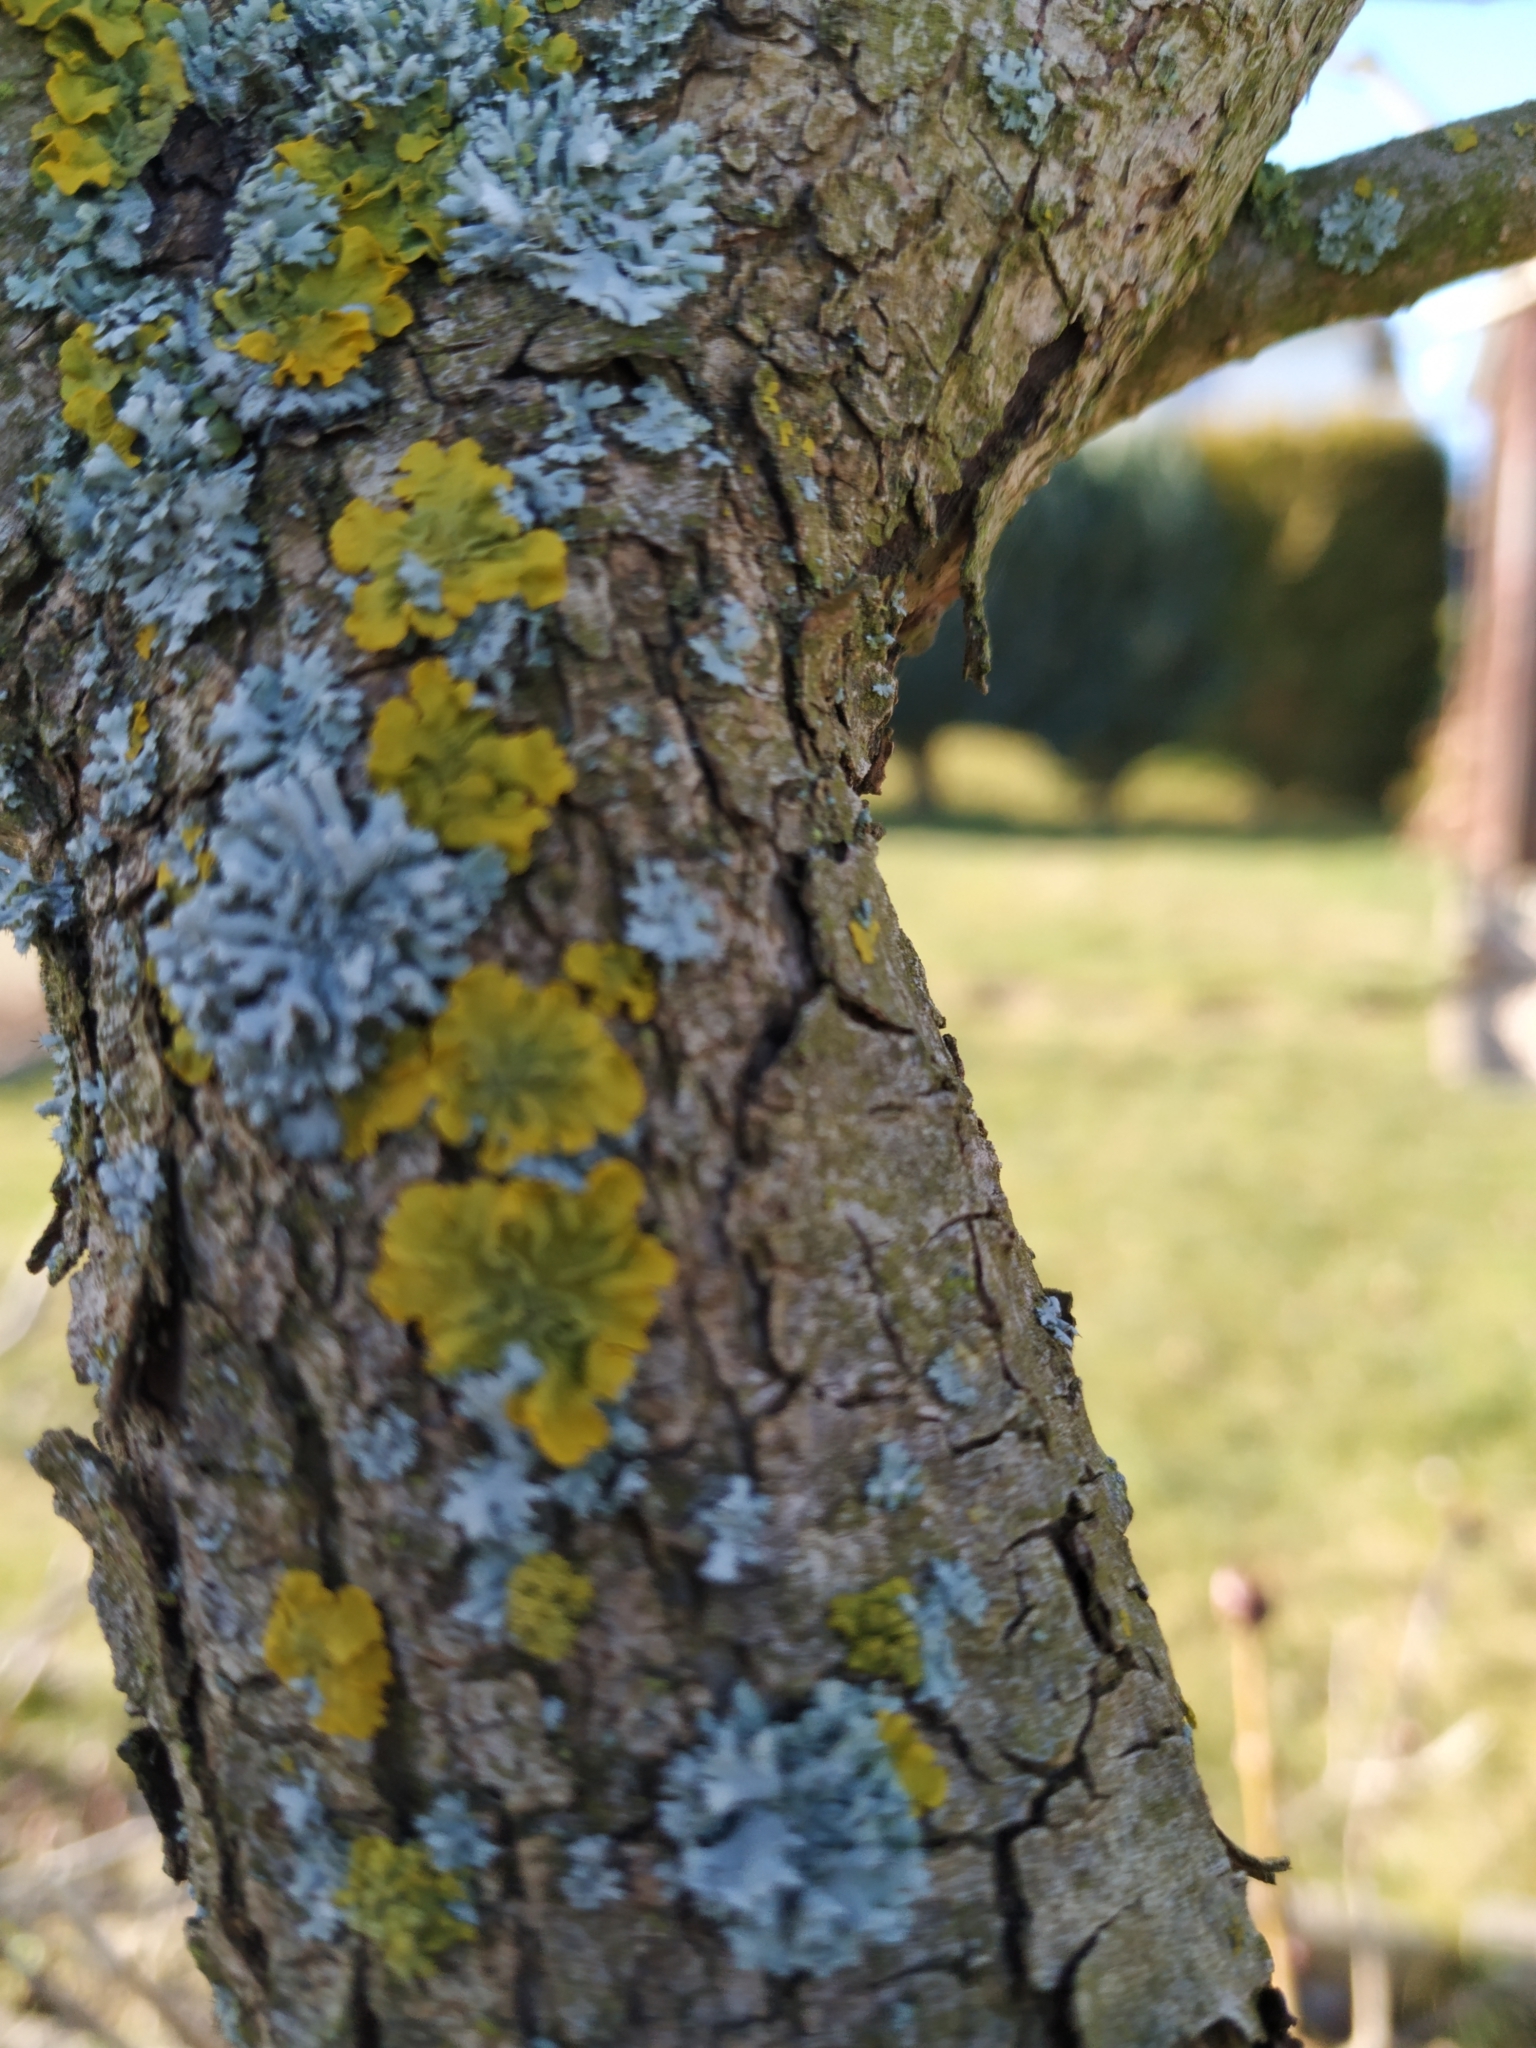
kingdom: Fungi
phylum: Ascomycota
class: Lecanoromycetes
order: Teloschistales
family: Teloschistaceae
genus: Xanthoria
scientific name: Xanthoria parietina
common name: Common orange lichen
